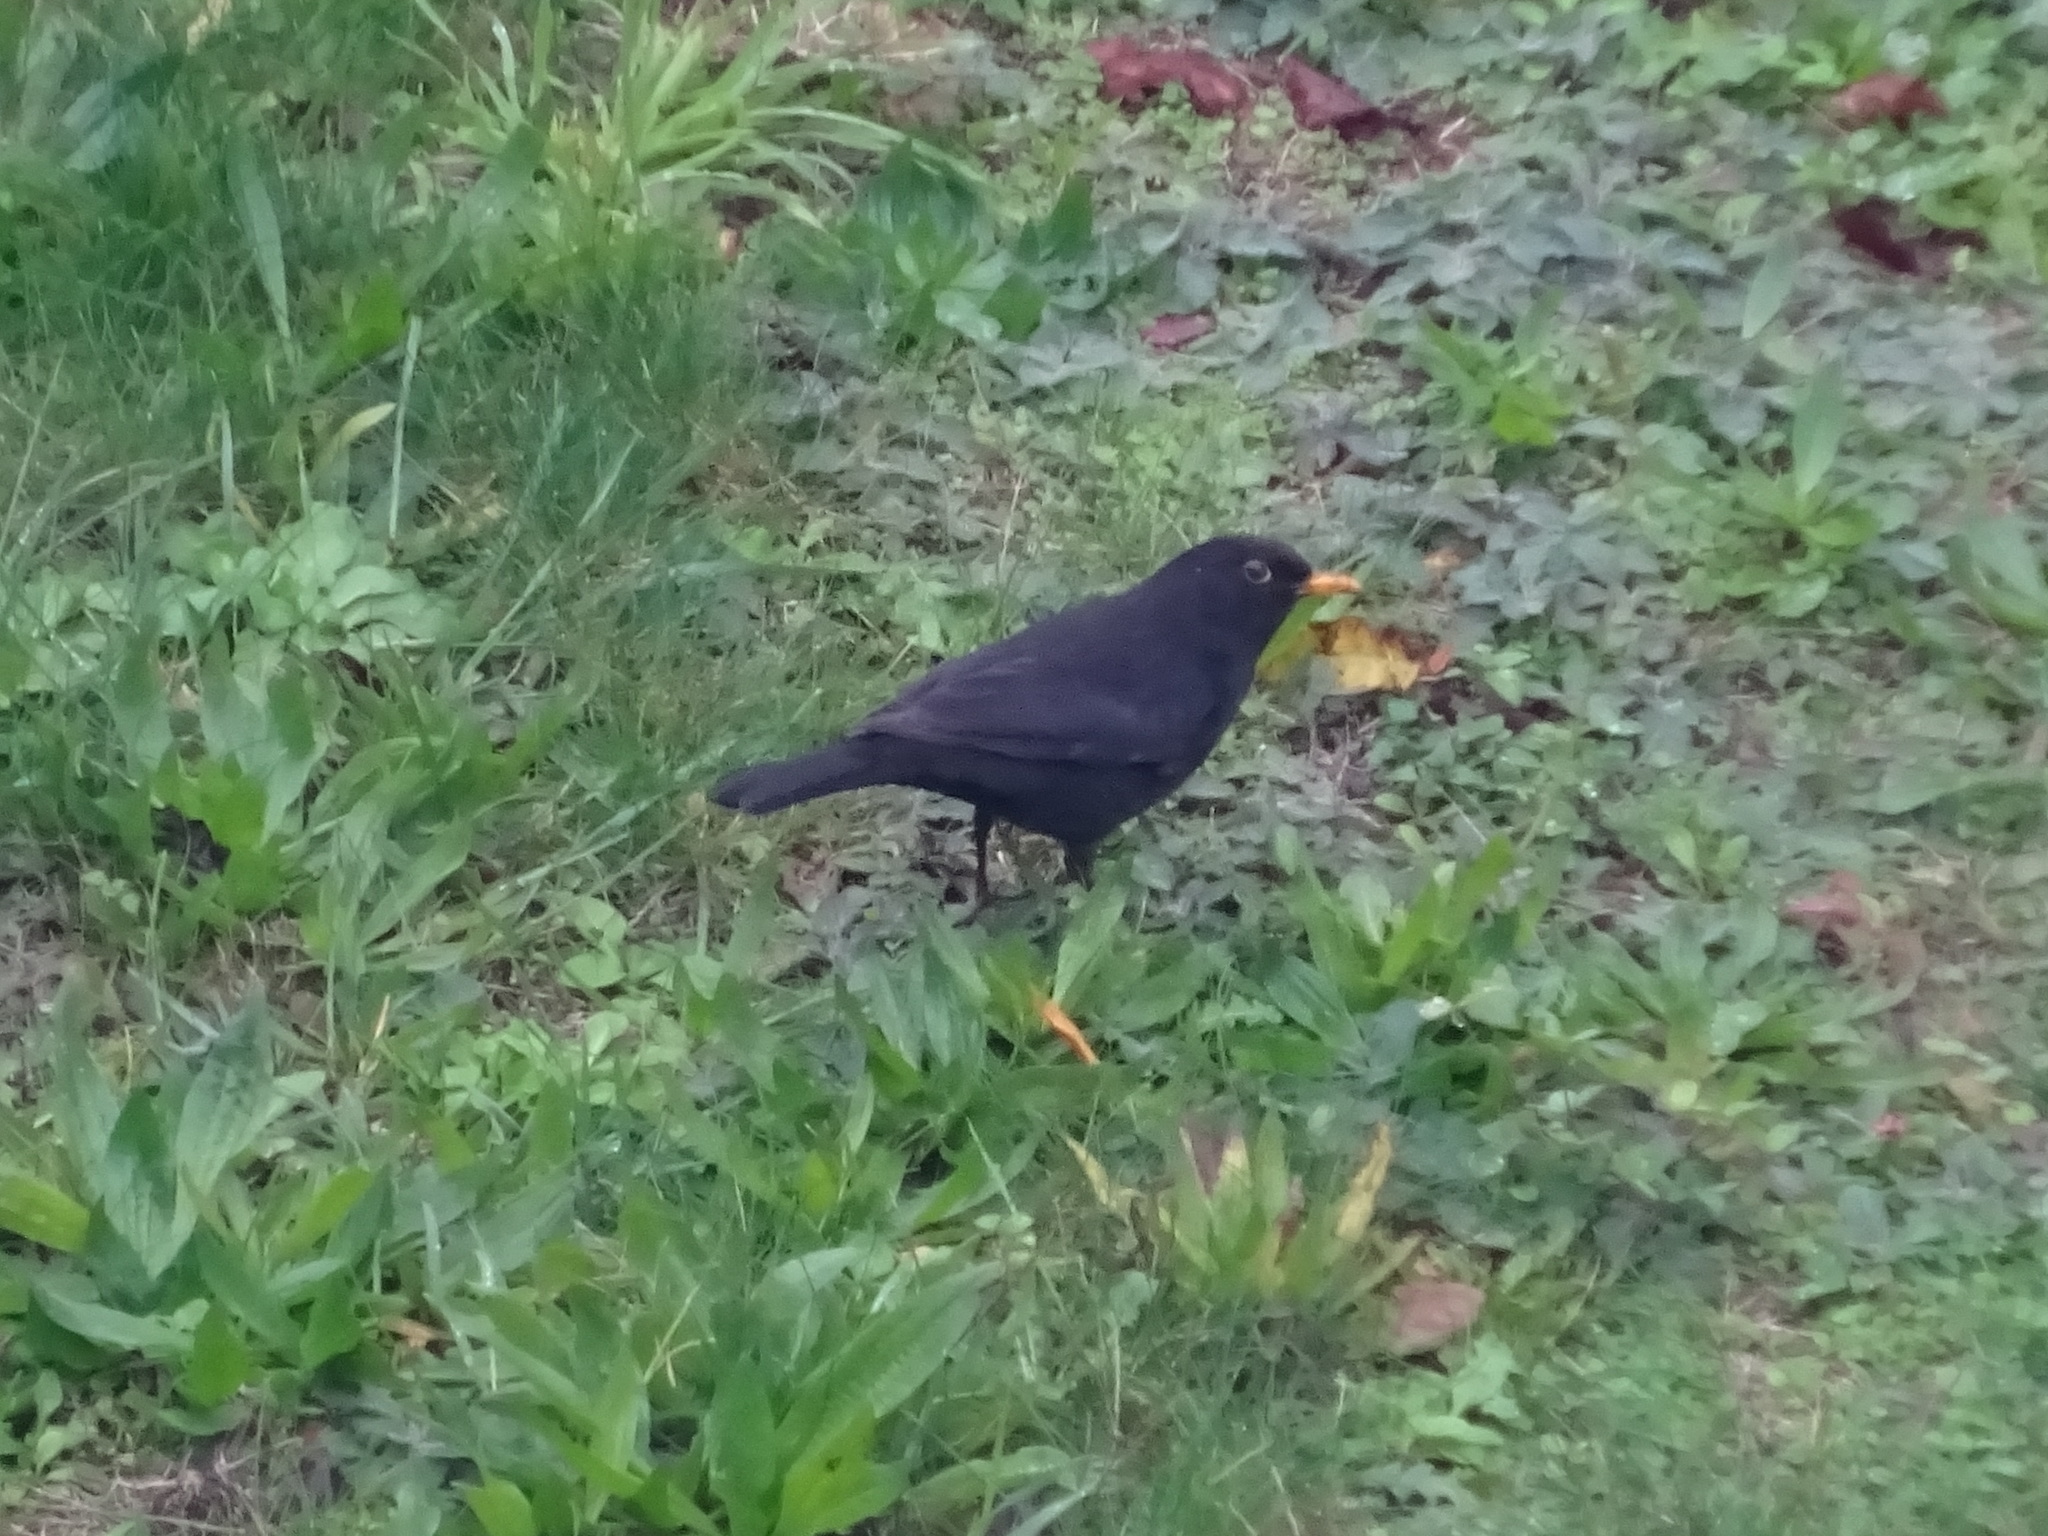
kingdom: Animalia
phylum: Chordata
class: Aves
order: Passeriformes
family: Turdidae
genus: Turdus
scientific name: Turdus merula
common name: Common blackbird
